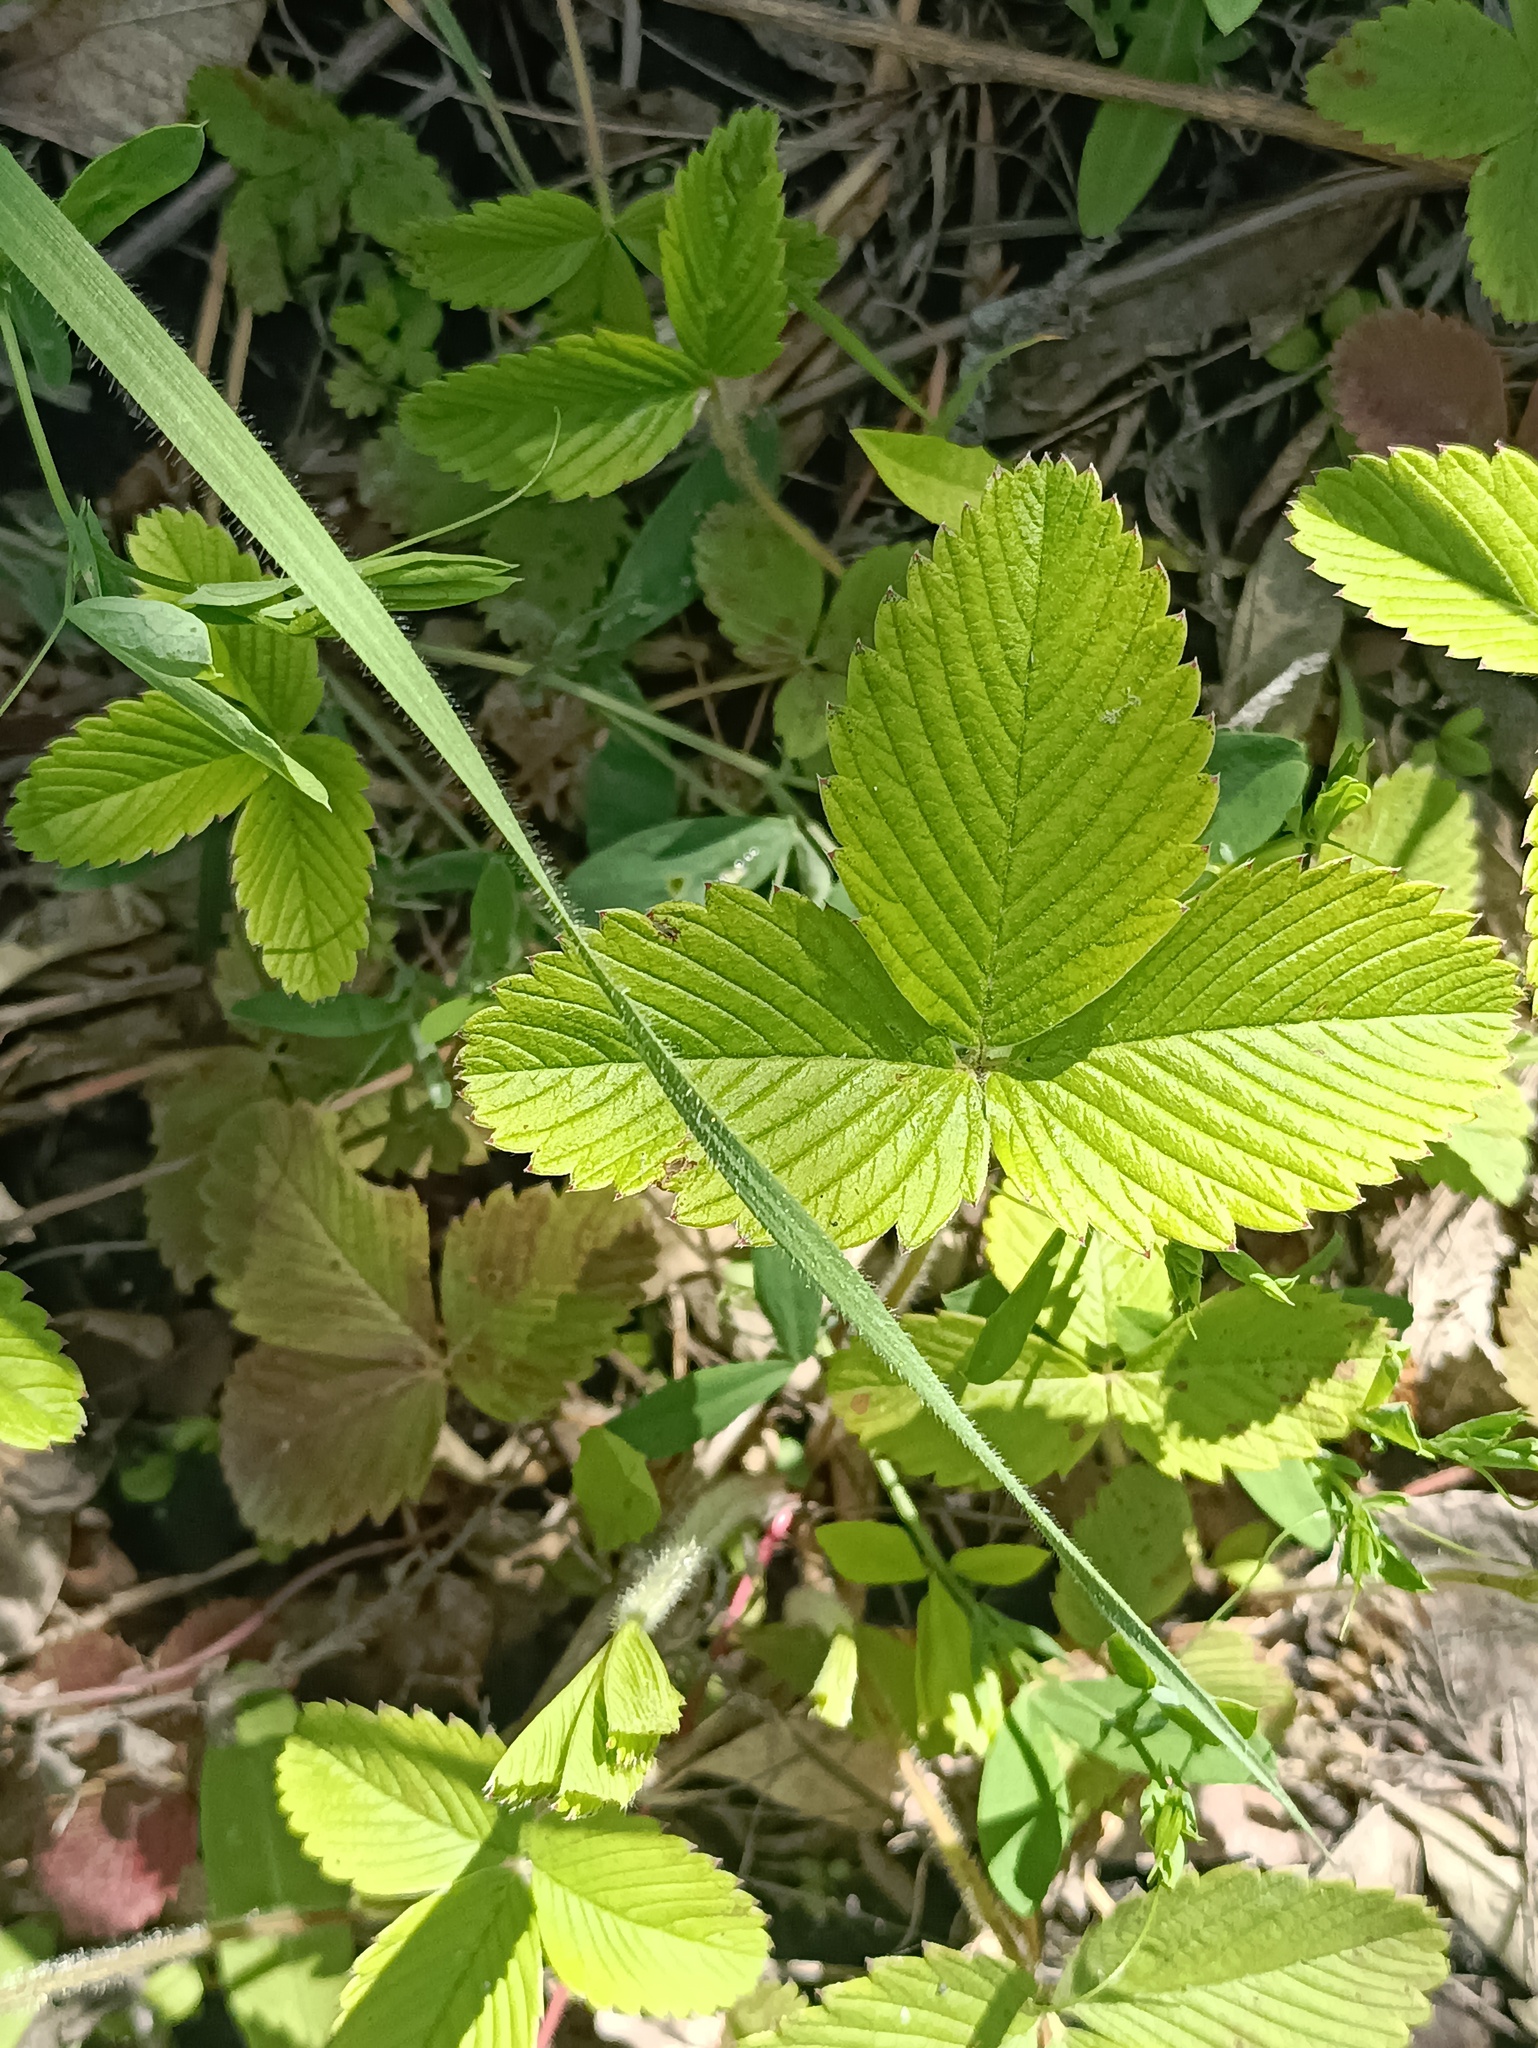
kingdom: Plantae
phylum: Tracheophyta
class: Magnoliopsida
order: Rosales
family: Rosaceae
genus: Fragaria
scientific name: Fragaria viridis
